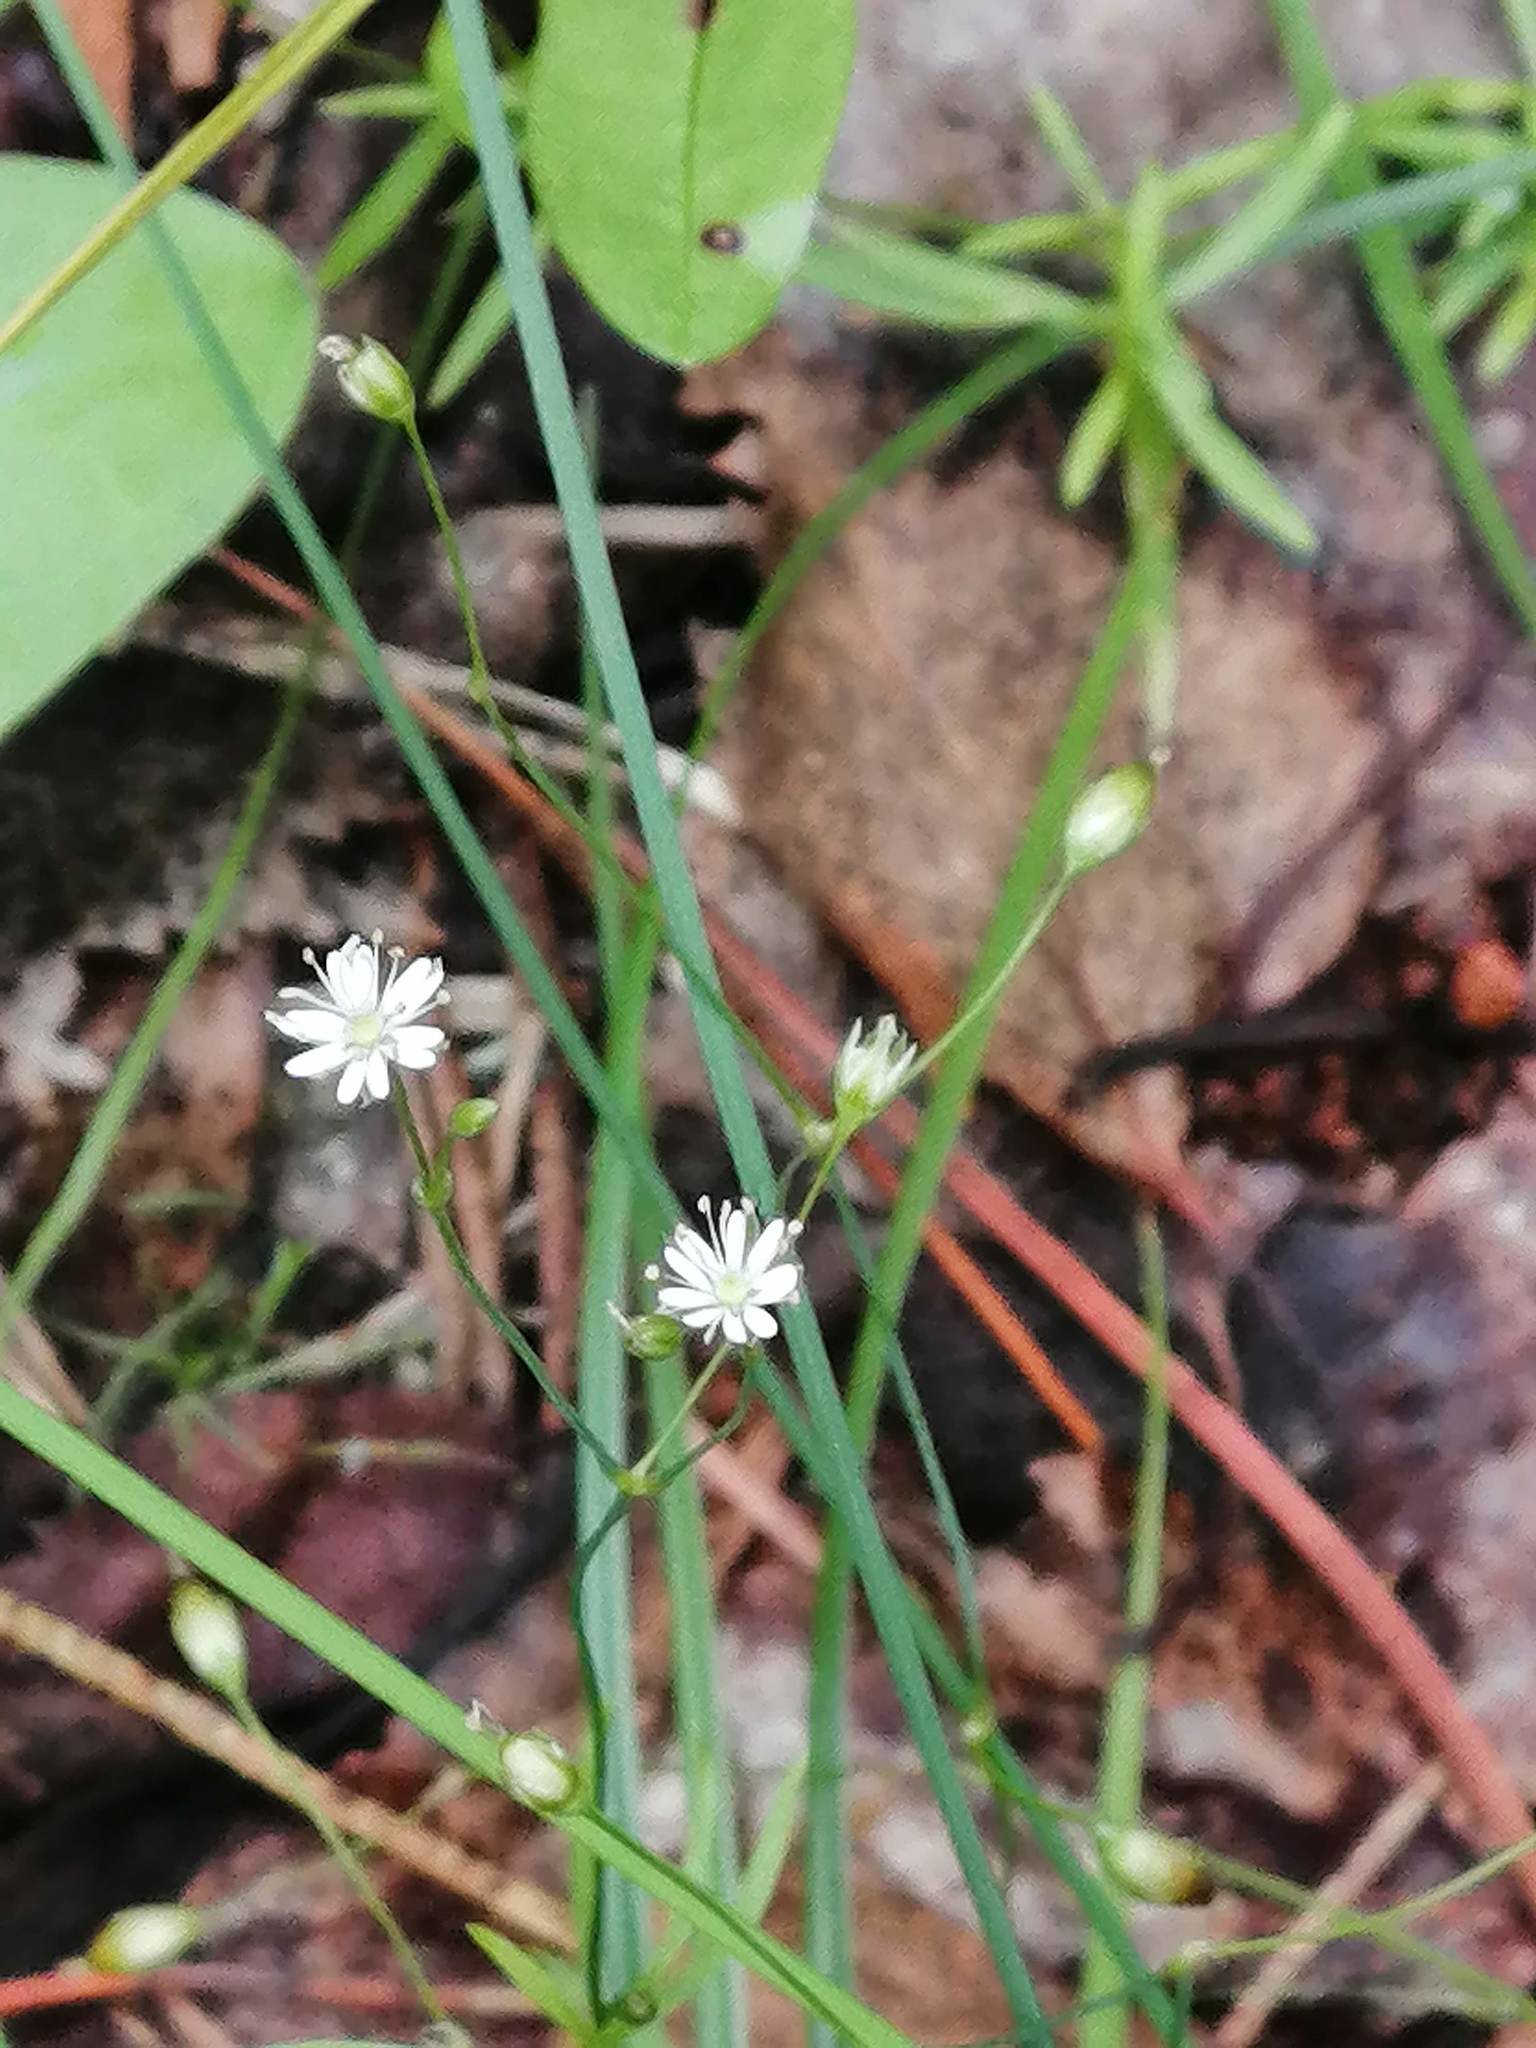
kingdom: Plantae
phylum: Tracheophyta
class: Magnoliopsida
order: Caryophyllales
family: Caryophyllaceae
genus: Stellaria
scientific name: Stellaria longifolia
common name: Long-leaved chickweed
